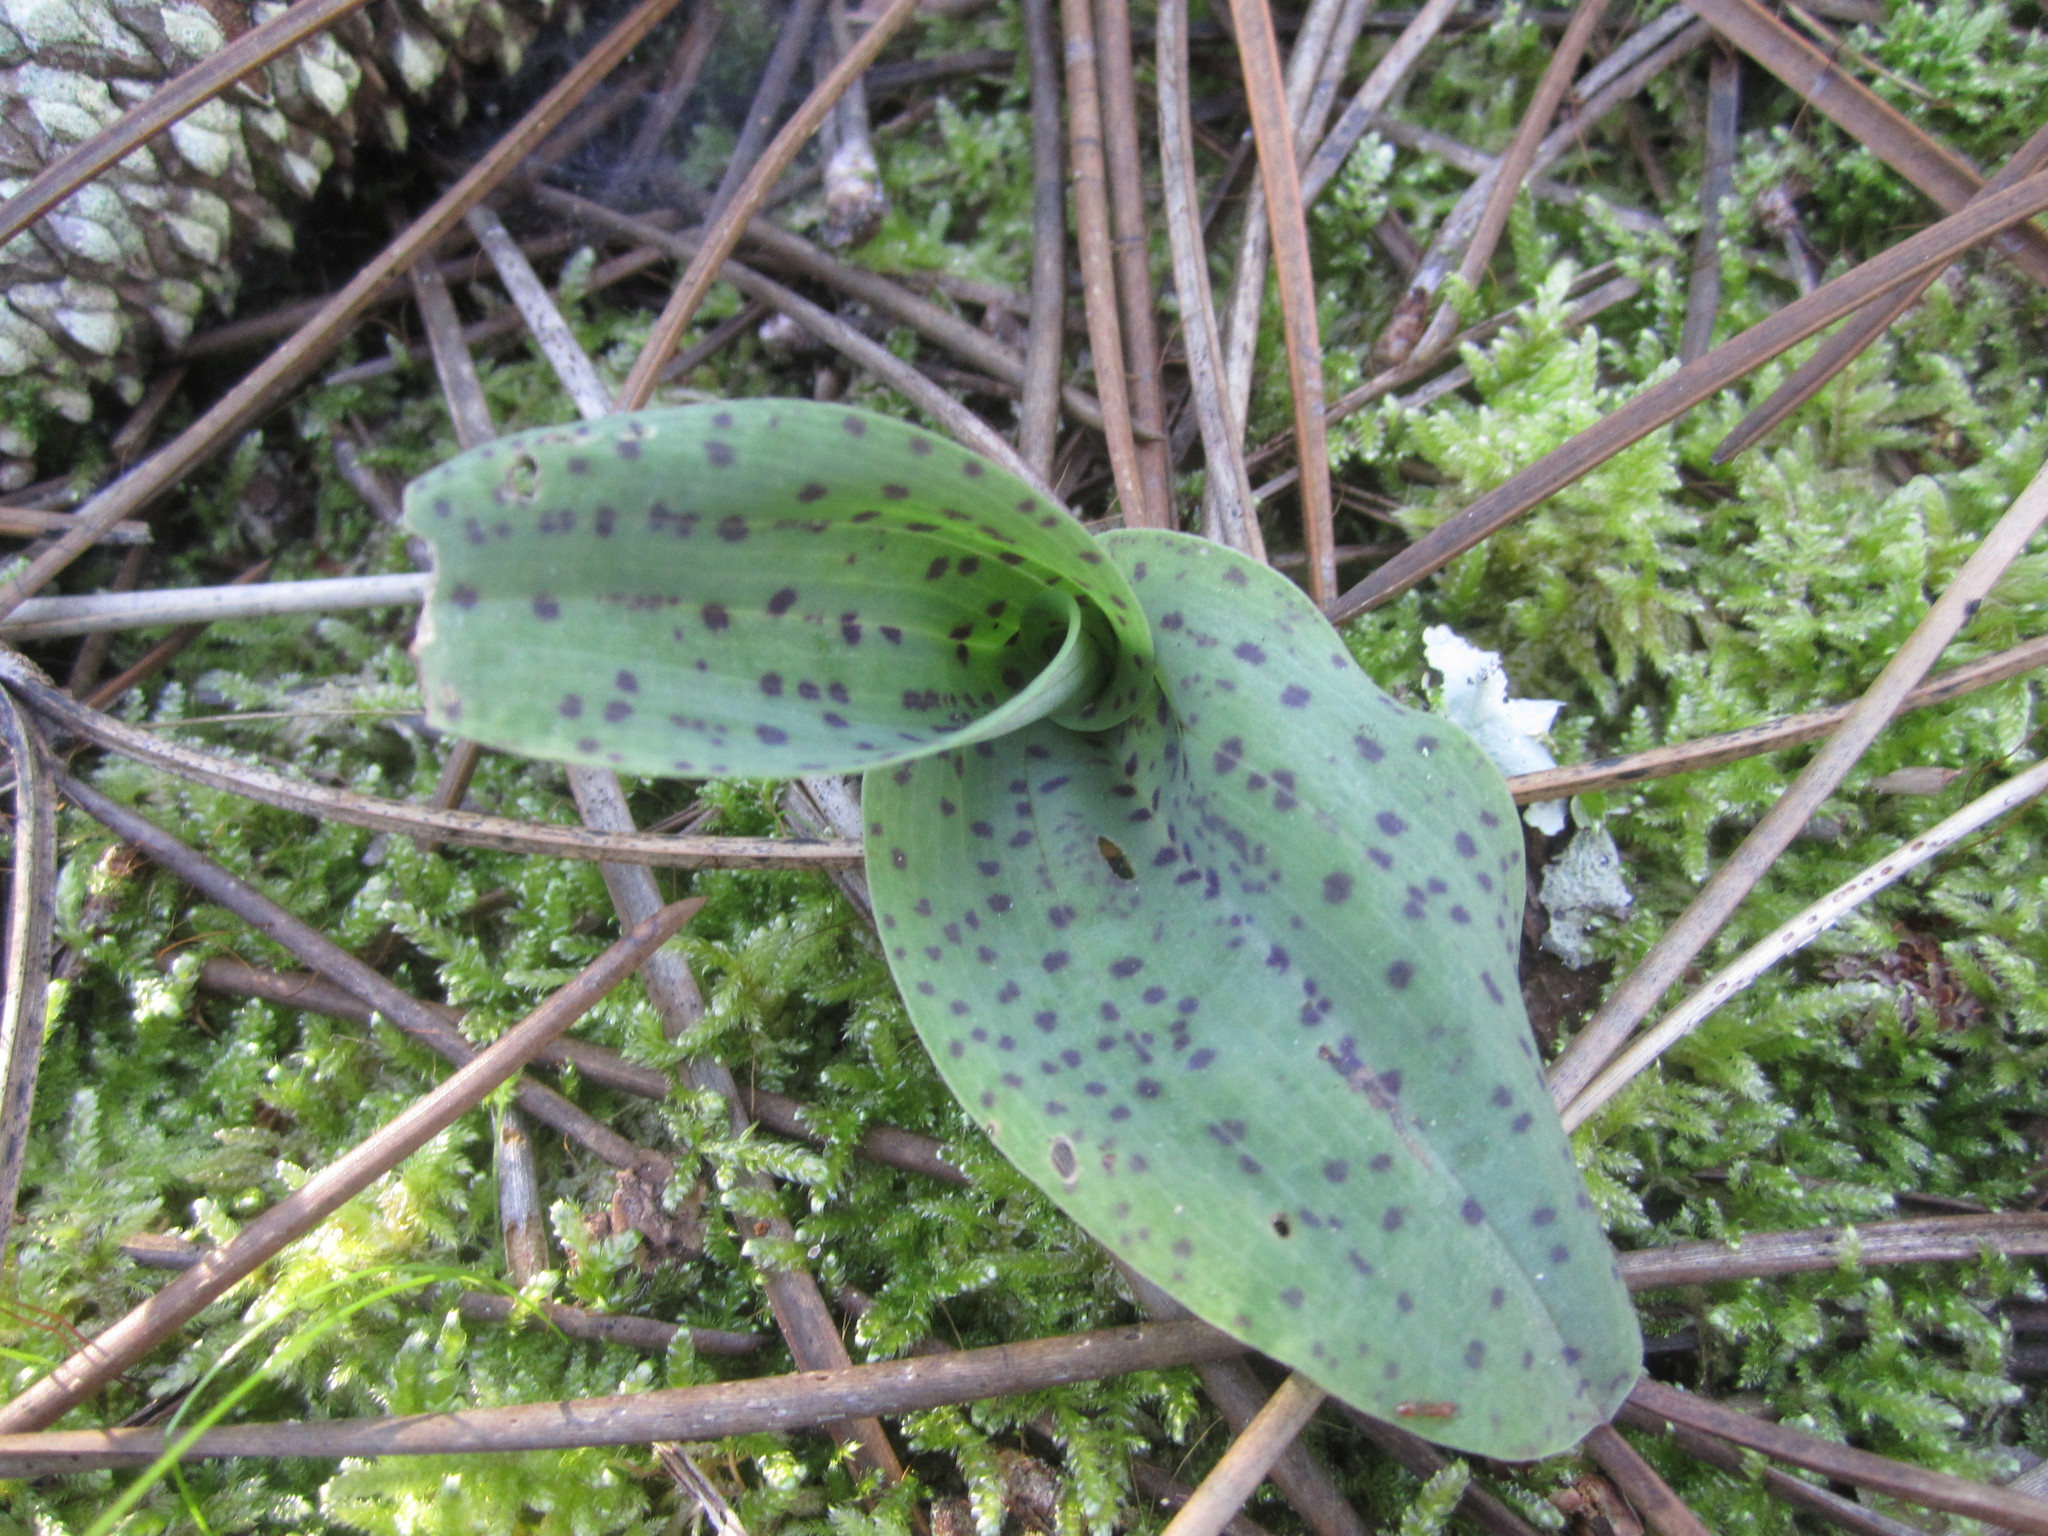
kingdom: Plantae
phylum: Tracheophyta
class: Liliopsida
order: Asparagales
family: Orchidaceae
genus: Neotinea
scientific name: Neotinea maculata
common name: Dense-flowered orchid
